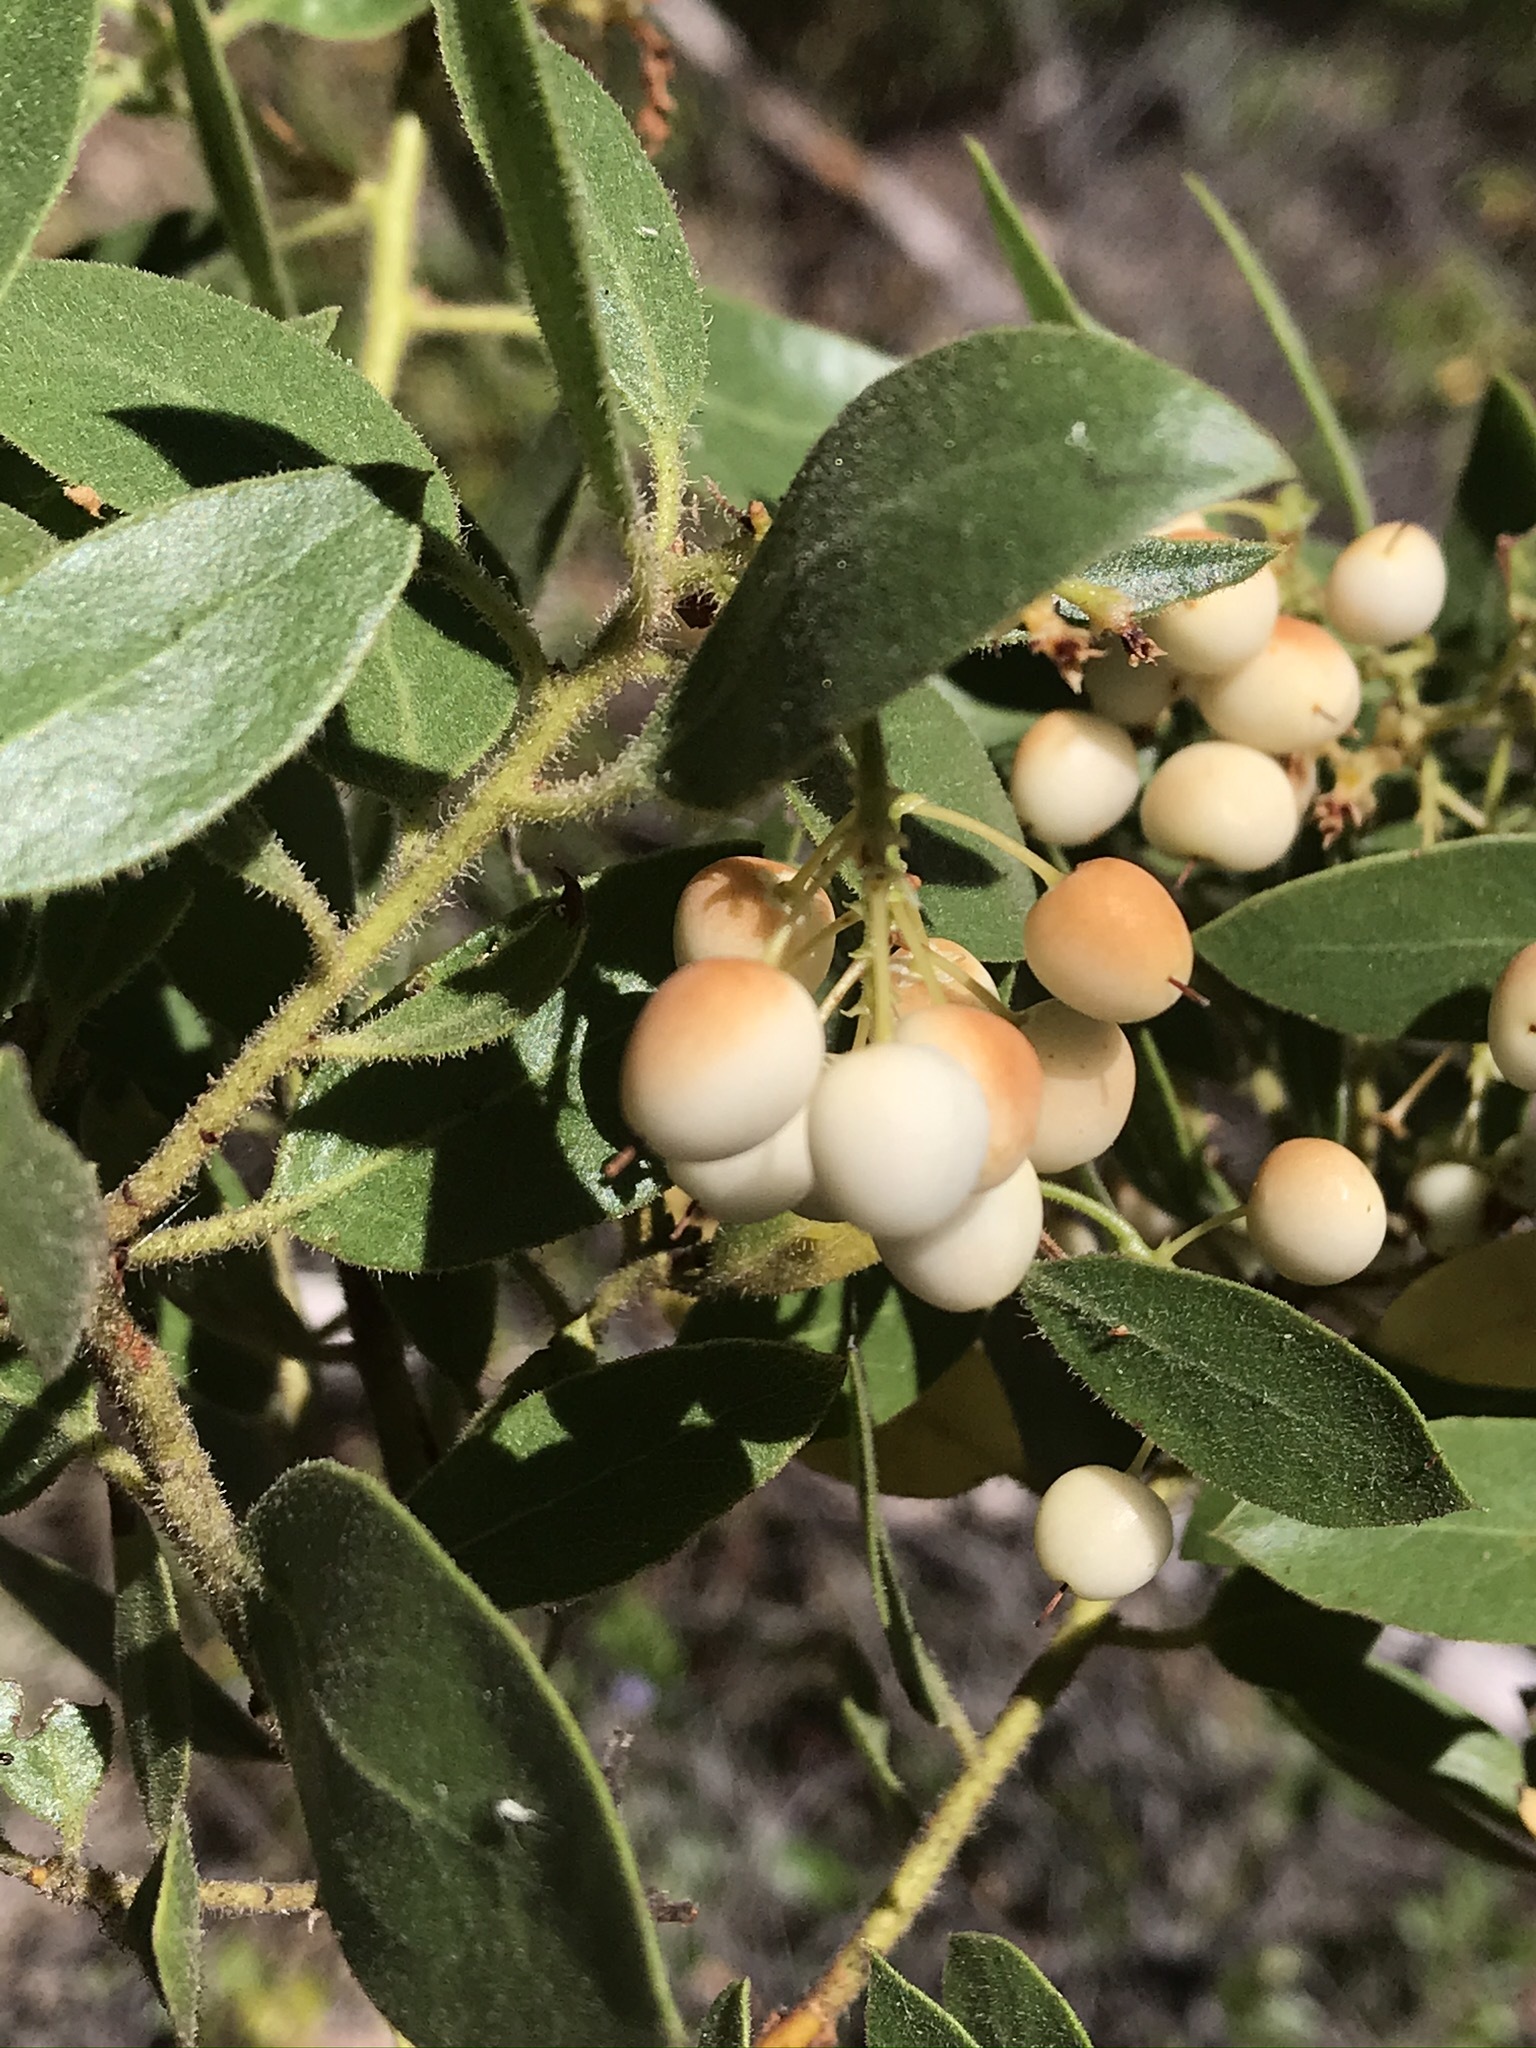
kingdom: Plantae
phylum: Tracheophyta
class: Magnoliopsida
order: Ericales
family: Ericaceae
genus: Arctostaphylos
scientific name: Arctostaphylos hispidula
